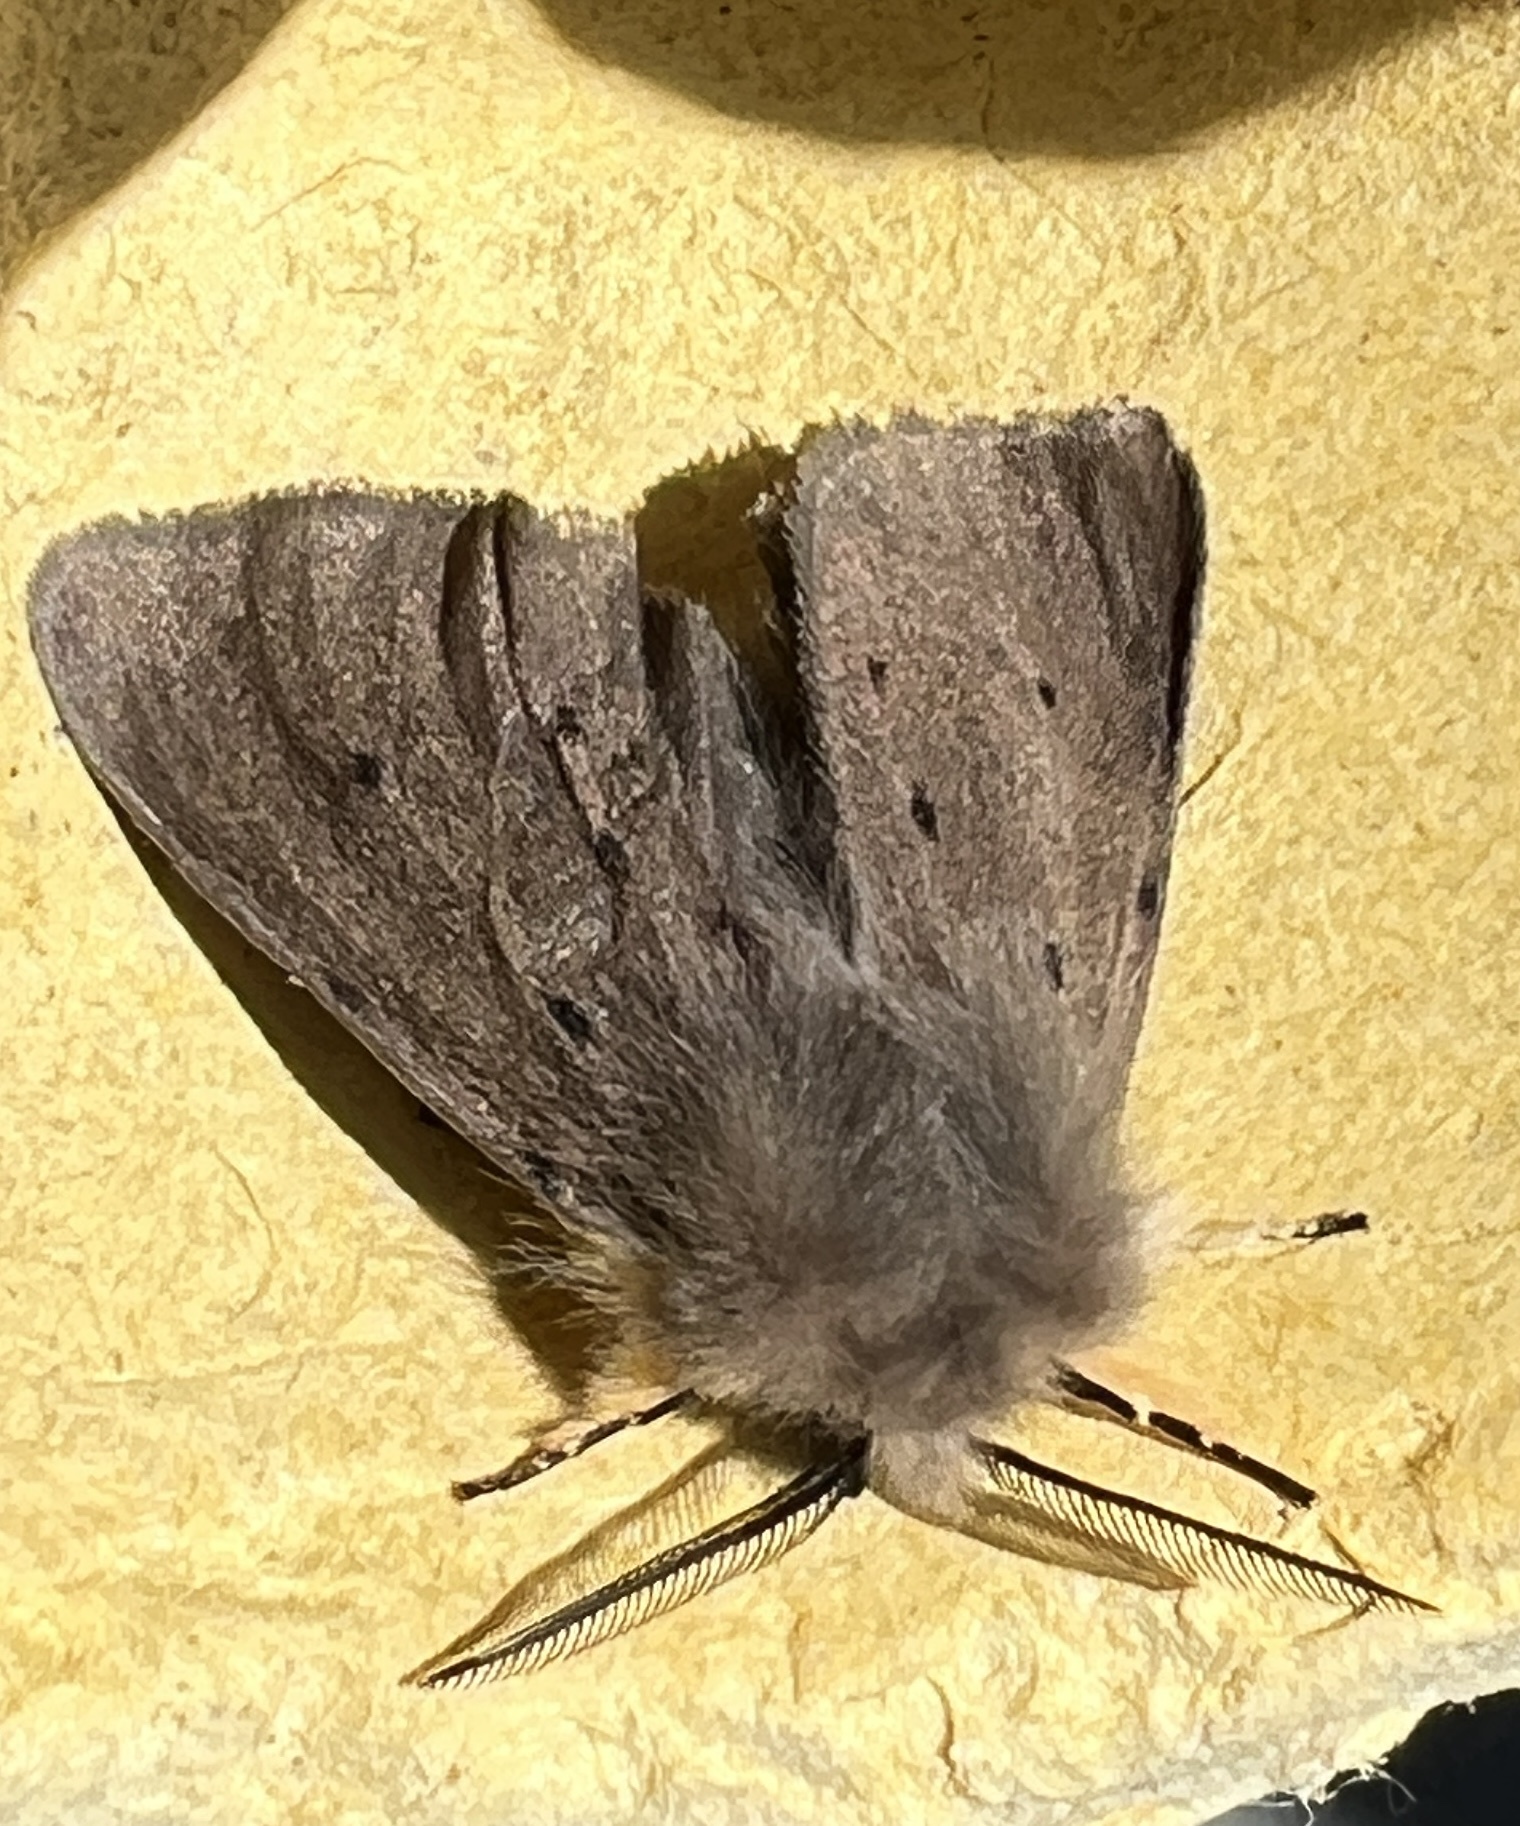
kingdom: Animalia
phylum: Arthropoda
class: Insecta
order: Lepidoptera
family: Erebidae
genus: Diaphora
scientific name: Diaphora mendica
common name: Muslin moth
